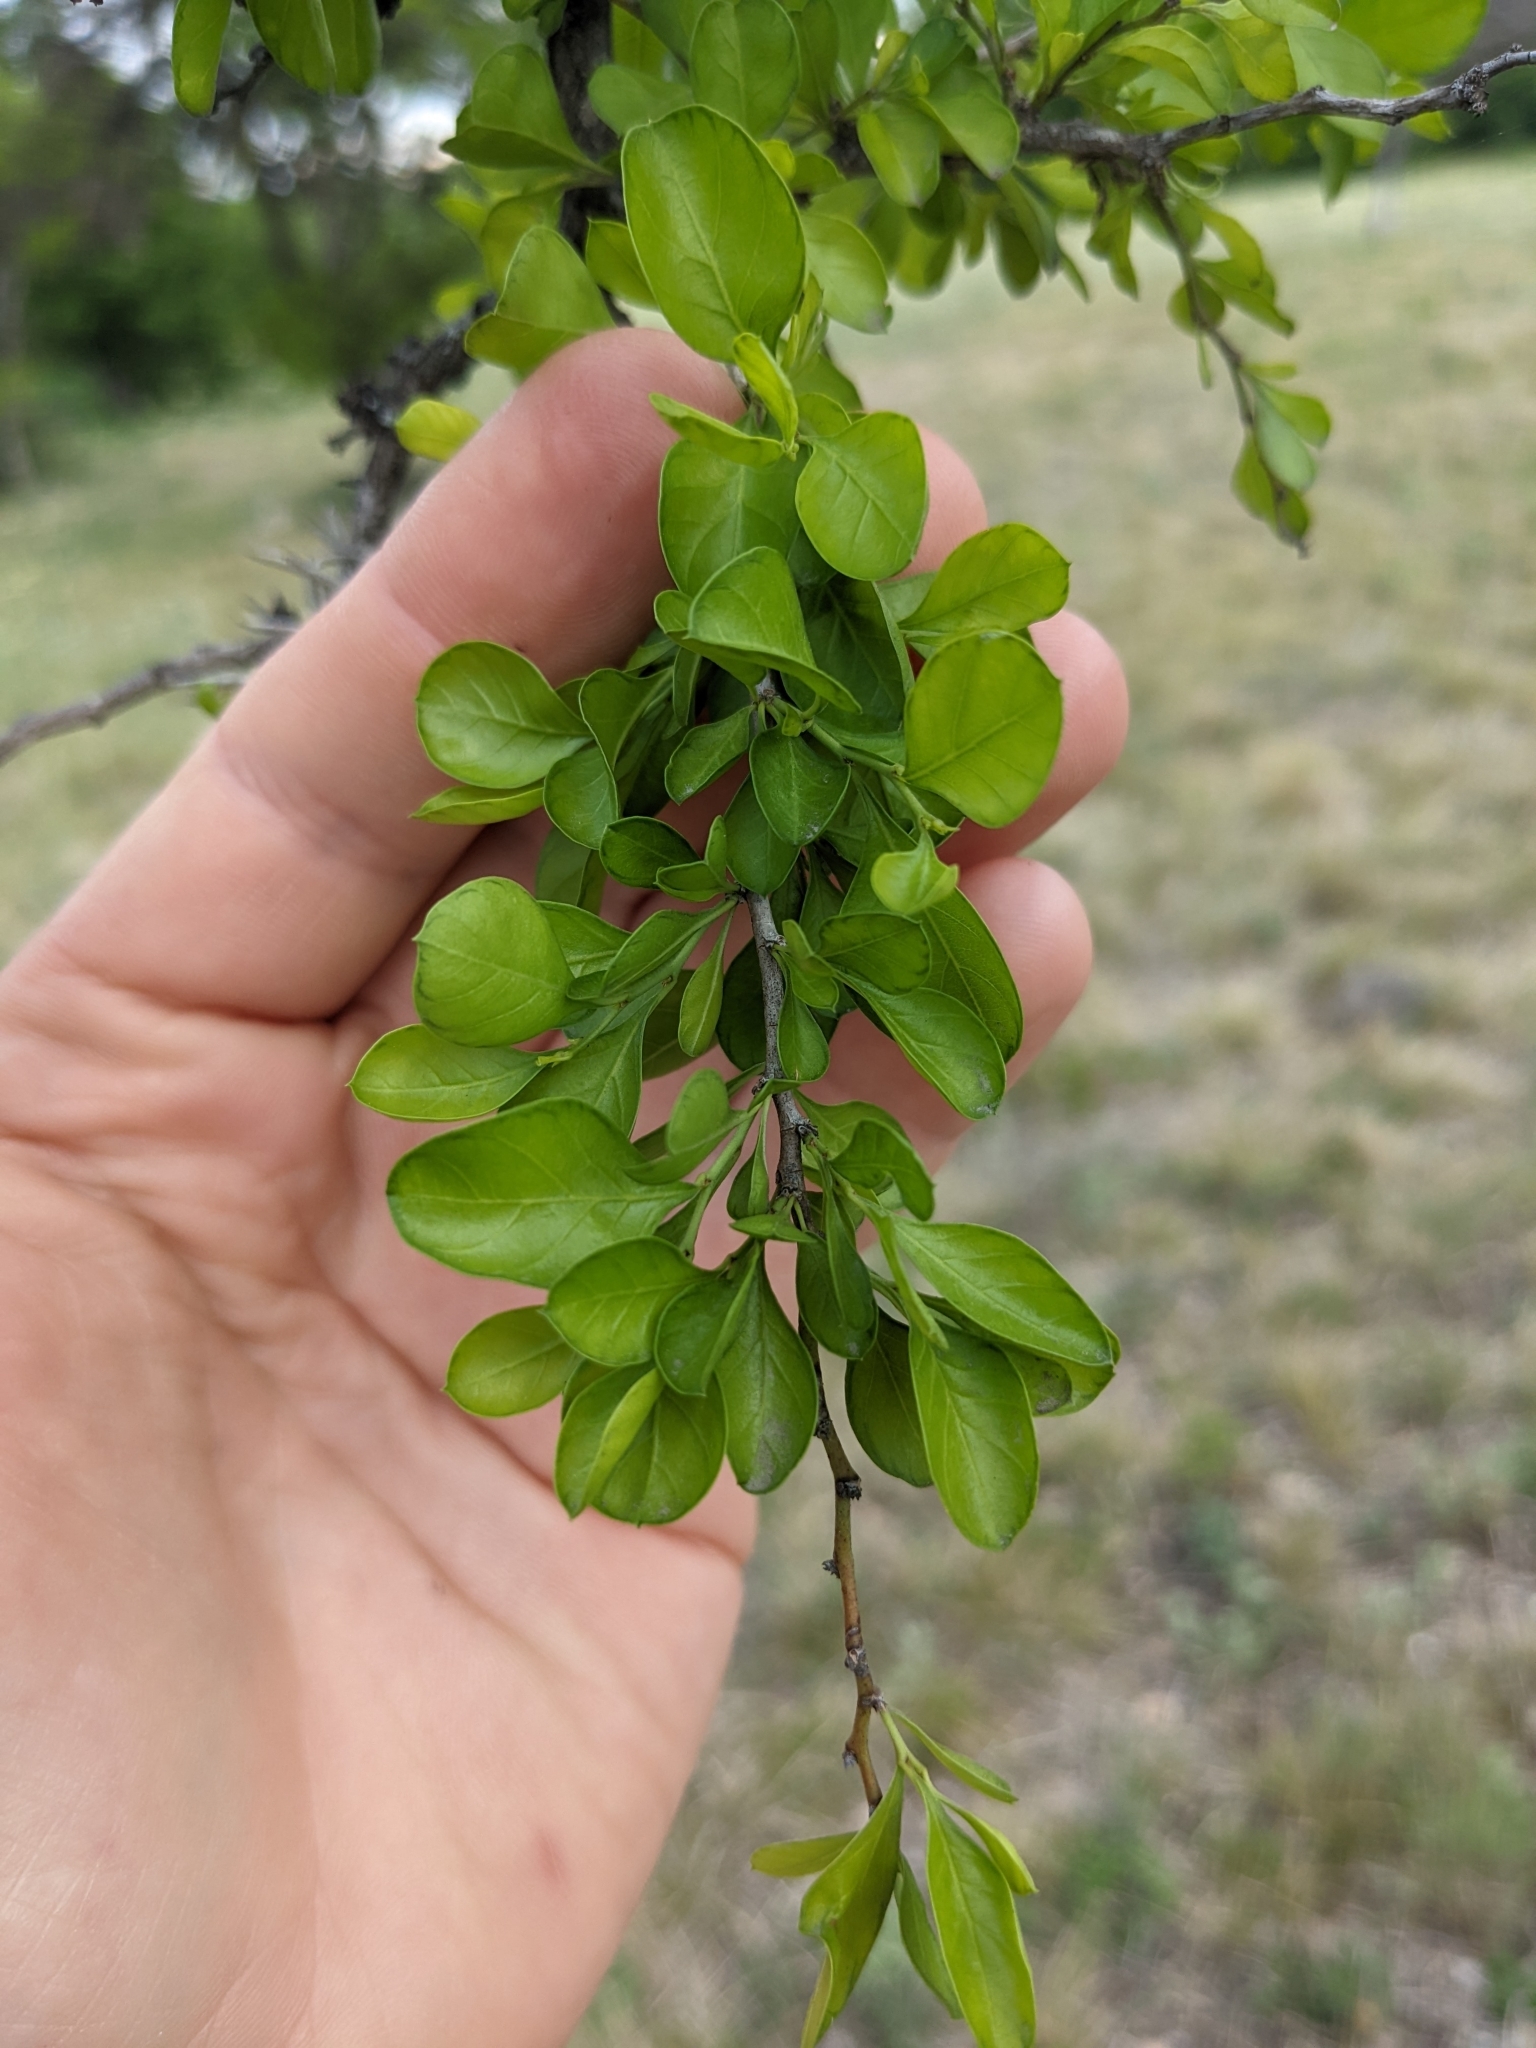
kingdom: Plantae
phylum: Tracheophyta
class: Magnoliopsida
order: Rosales
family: Rhamnaceae
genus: Condalia
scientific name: Condalia hookeri
